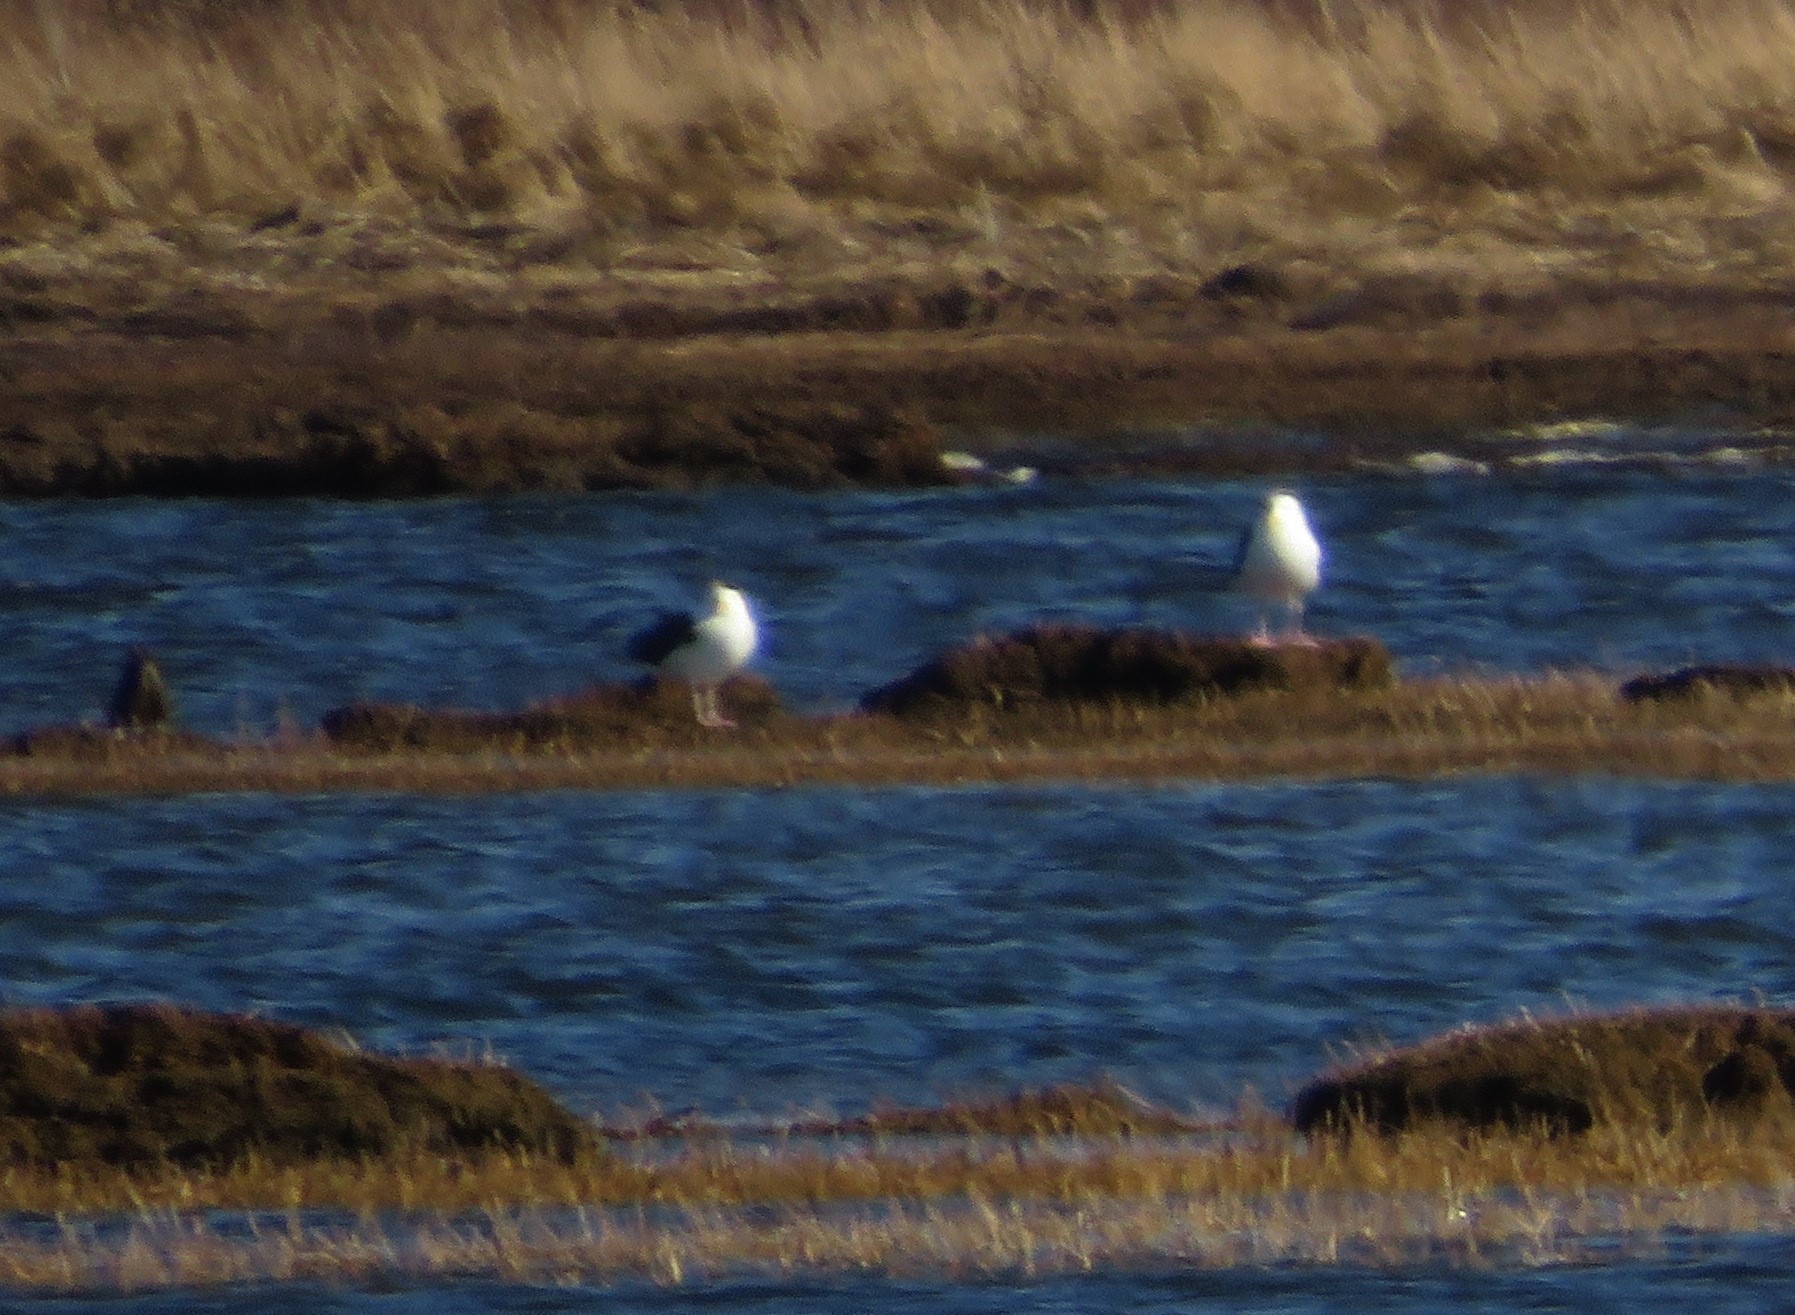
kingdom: Animalia
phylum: Chordata
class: Aves
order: Charadriiformes
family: Laridae
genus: Larus
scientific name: Larus marinus
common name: Great black-backed gull
